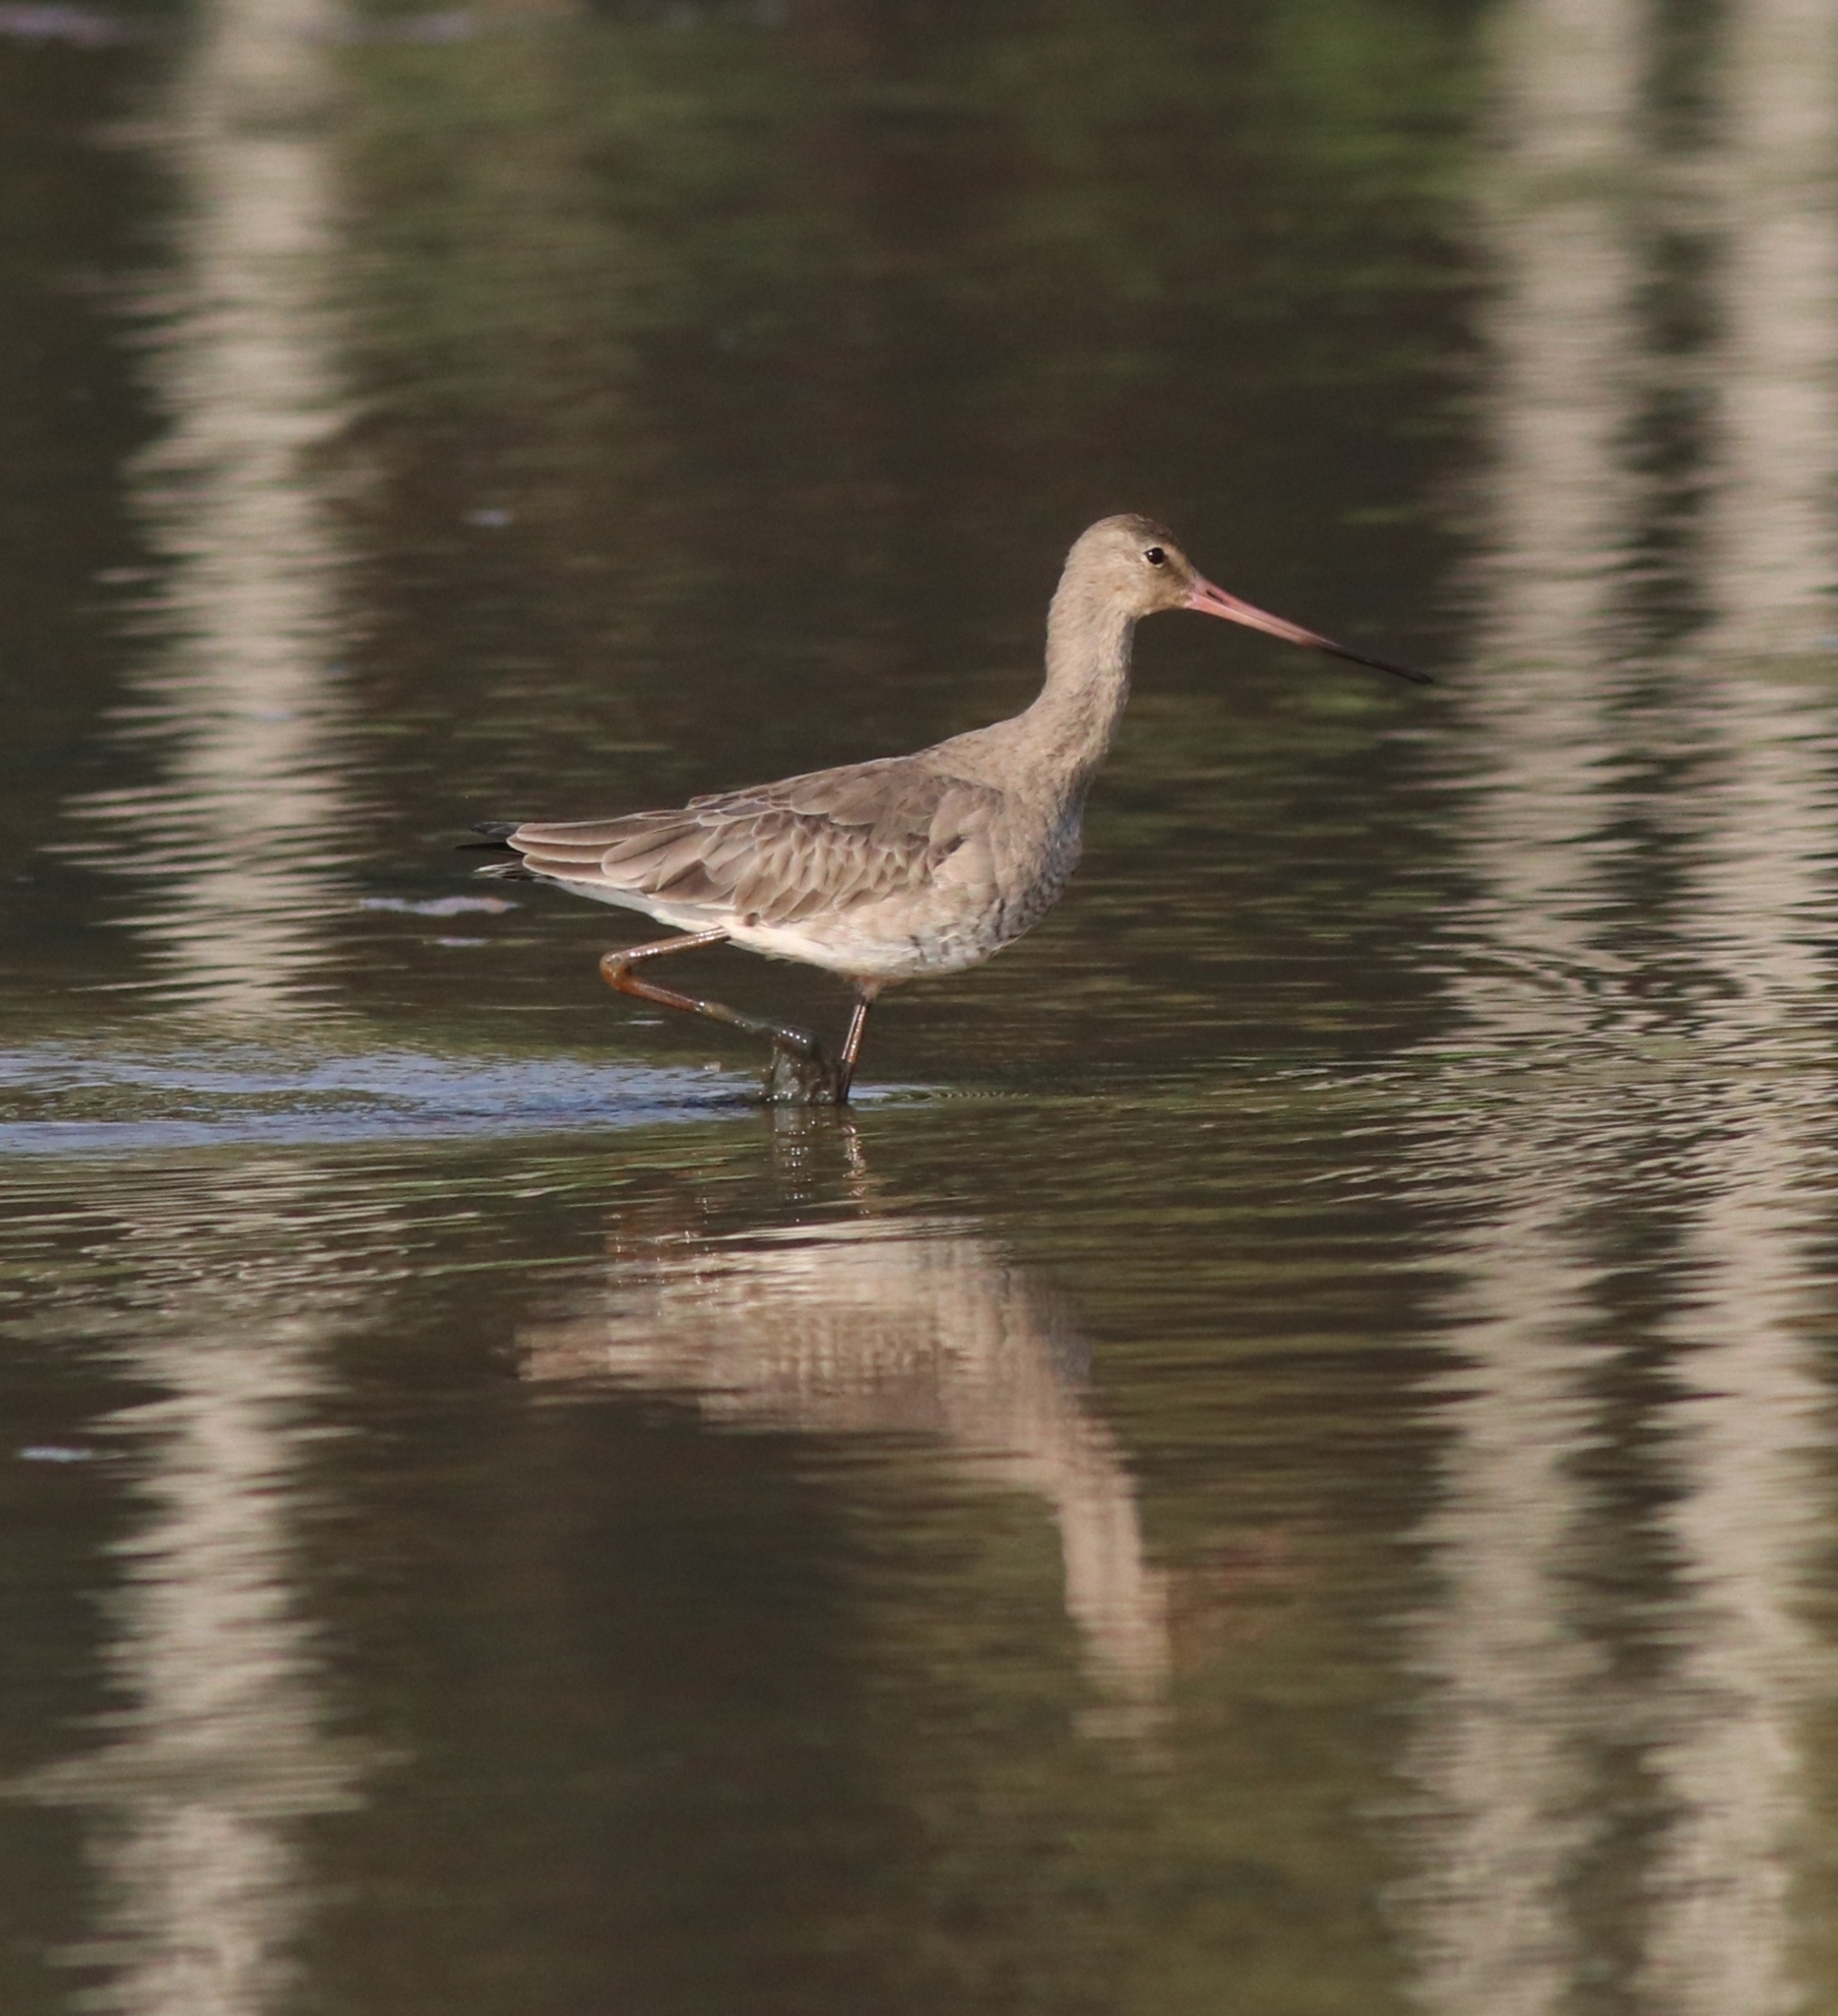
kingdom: Animalia
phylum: Chordata
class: Aves
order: Charadriiformes
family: Scolopacidae
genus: Limosa
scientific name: Limosa limosa
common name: Black-tailed godwit
